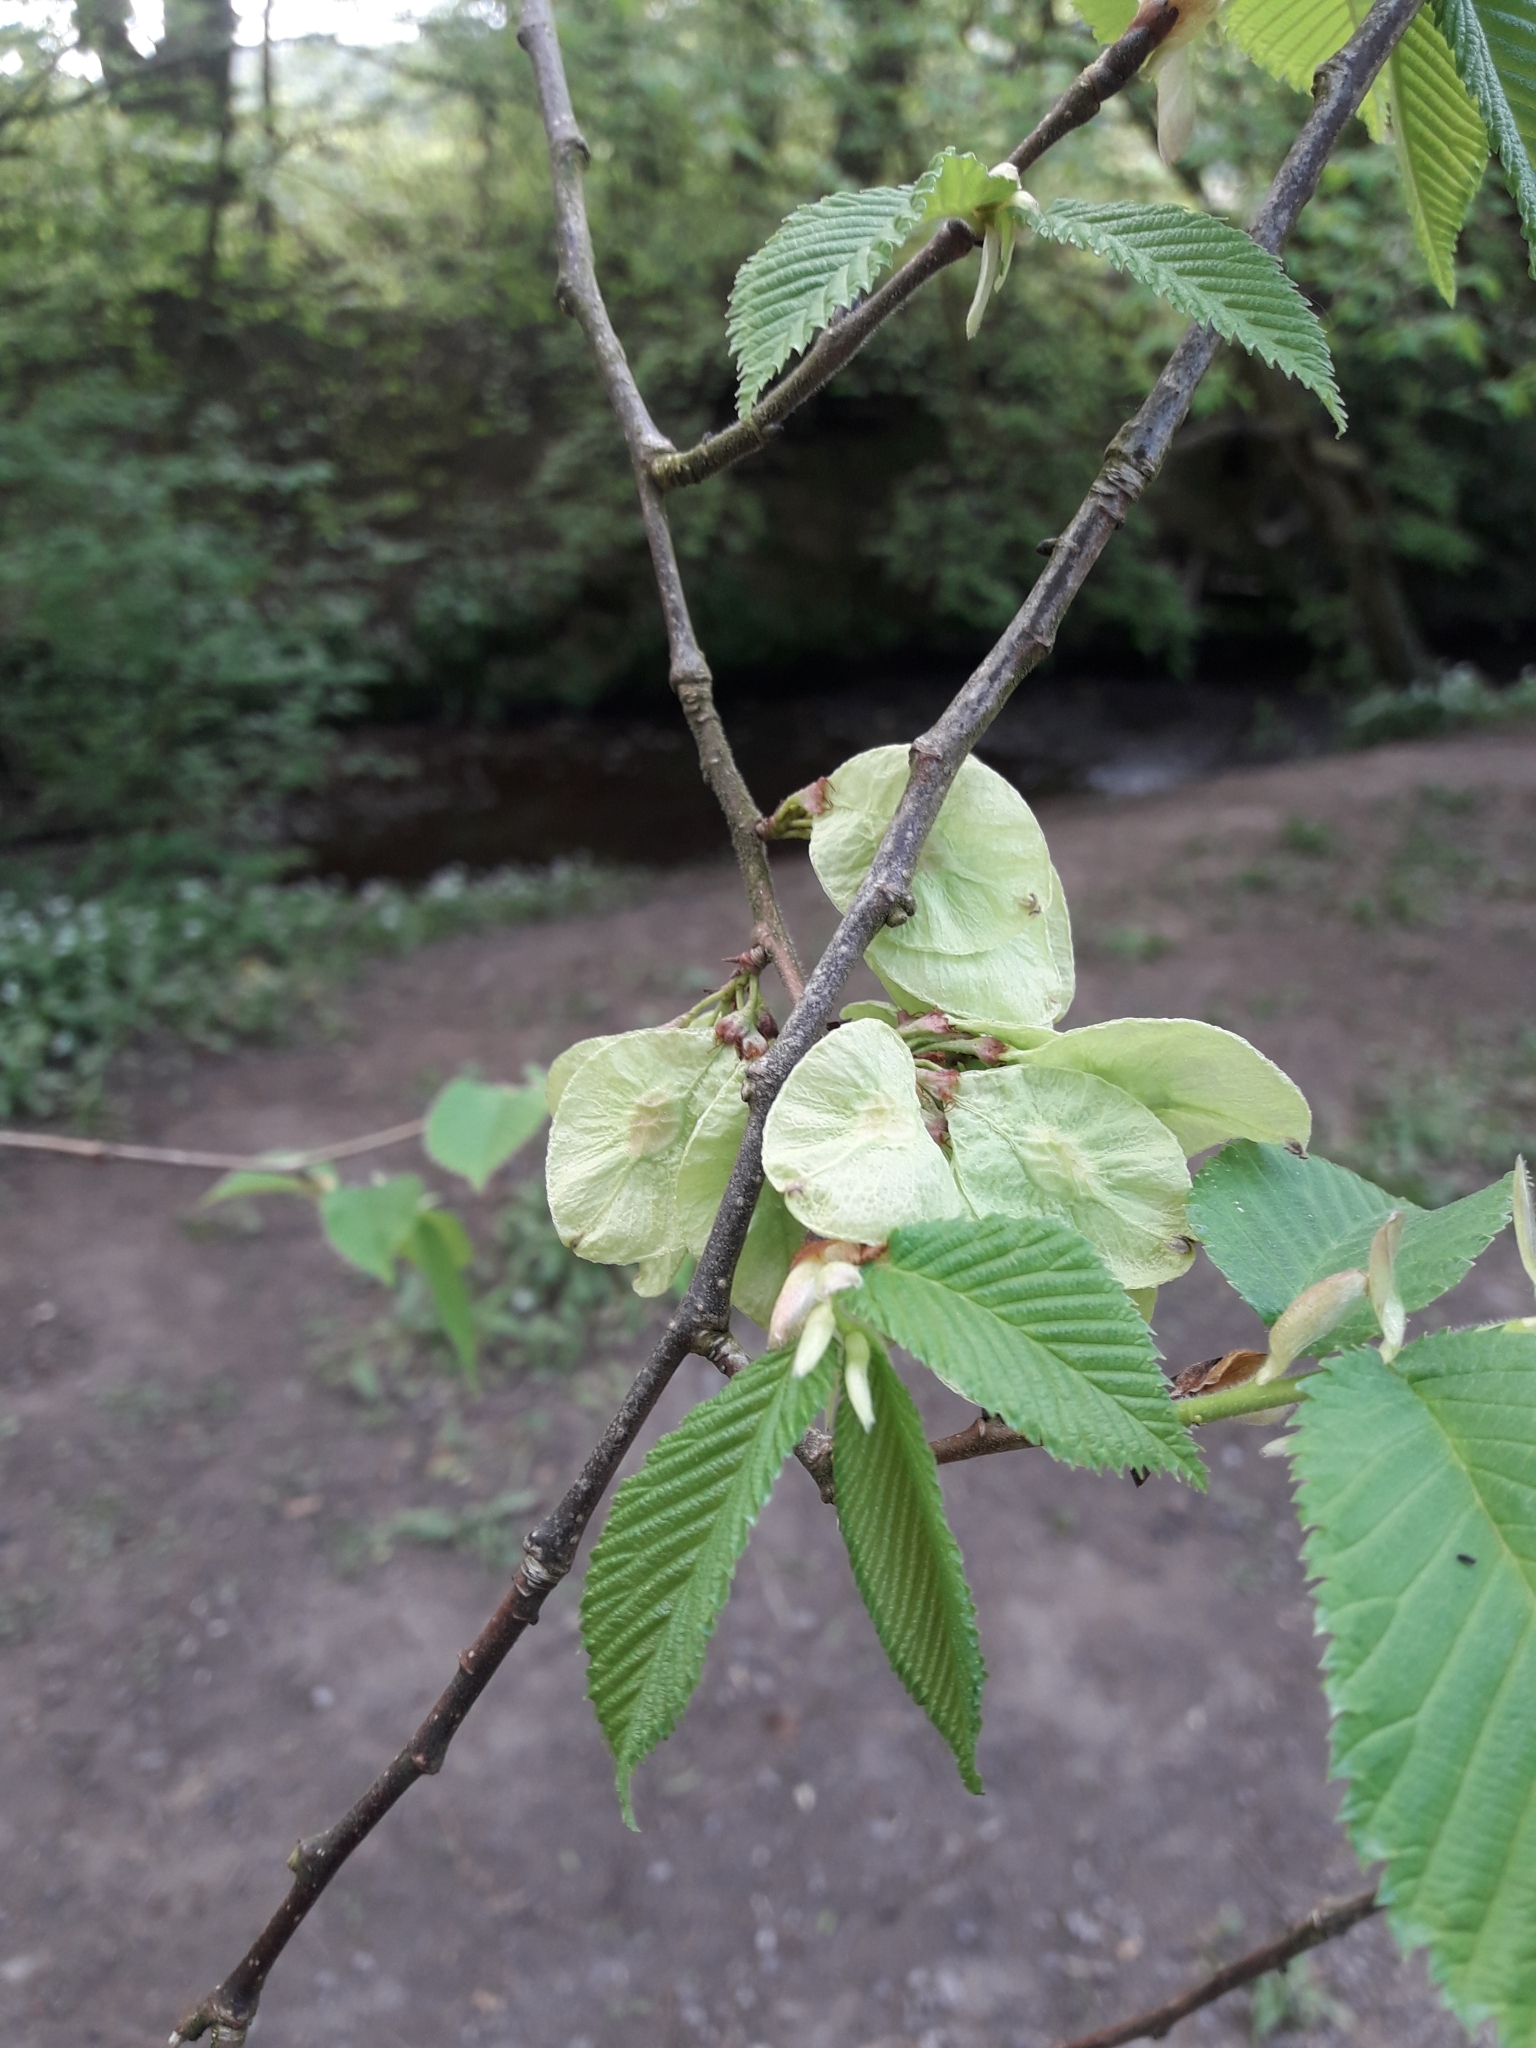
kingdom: Plantae
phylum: Tracheophyta
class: Magnoliopsida
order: Rosales
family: Ulmaceae
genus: Ulmus
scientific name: Ulmus glabra
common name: Wych elm
